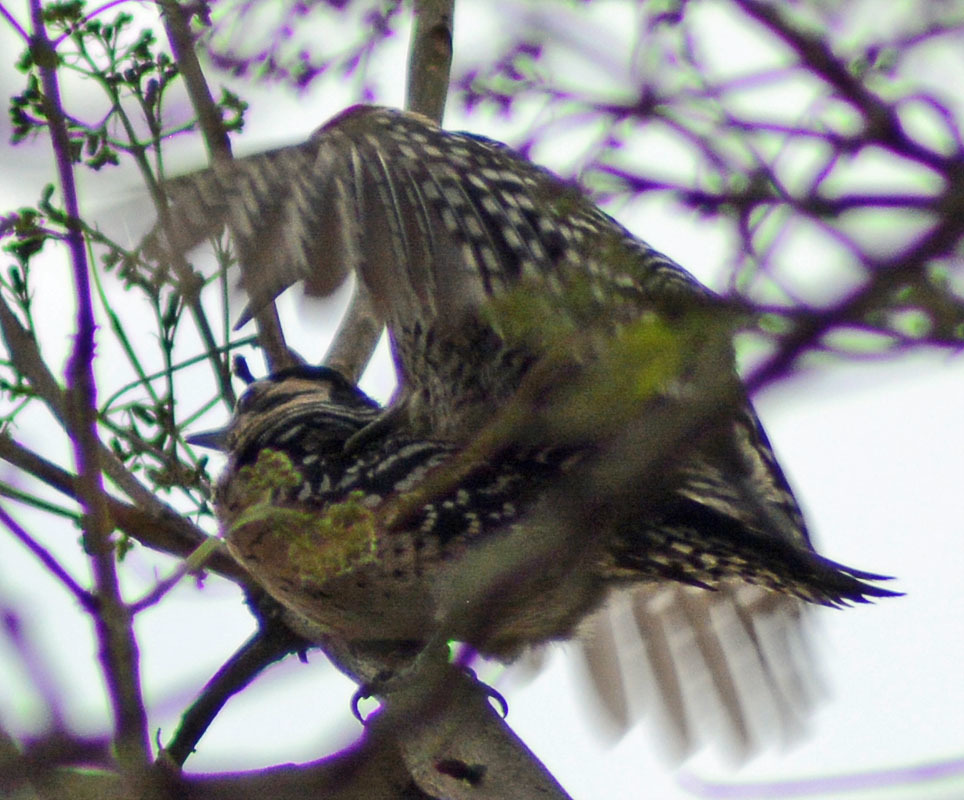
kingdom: Animalia
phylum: Chordata
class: Aves
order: Piciformes
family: Picidae
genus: Dryobates
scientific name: Dryobates scalaris
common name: Ladder-backed woodpecker
